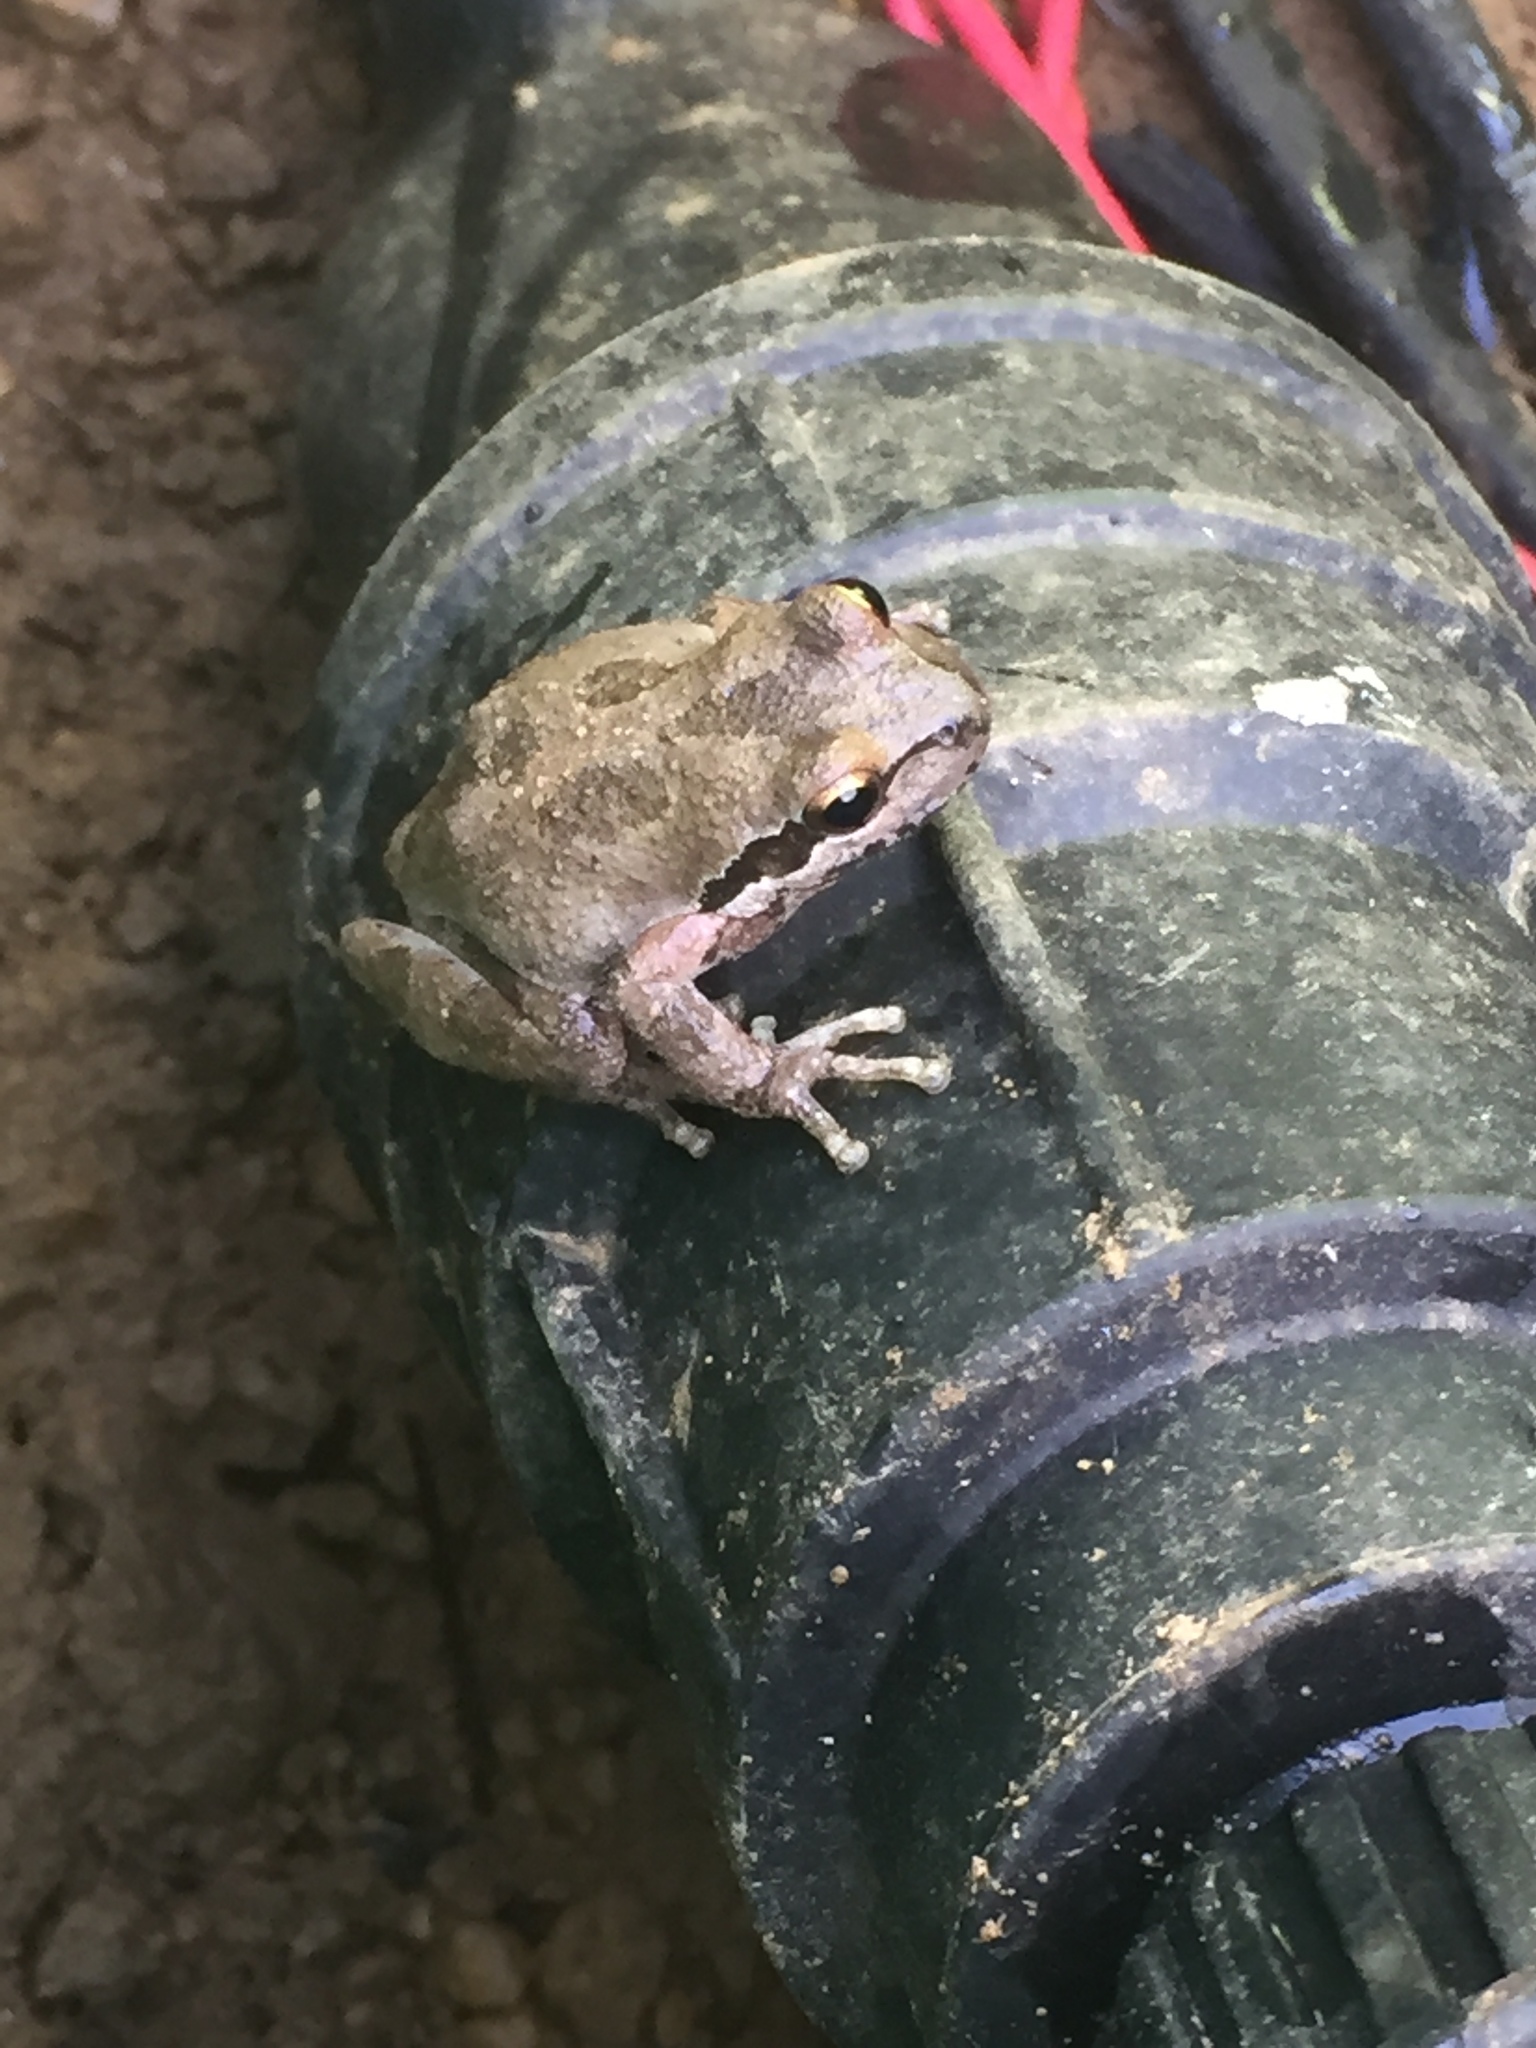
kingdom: Animalia
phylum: Chordata
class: Amphibia
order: Anura
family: Hylidae
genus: Pseudacris
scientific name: Pseudacris regilla
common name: Pacific chorus frog
